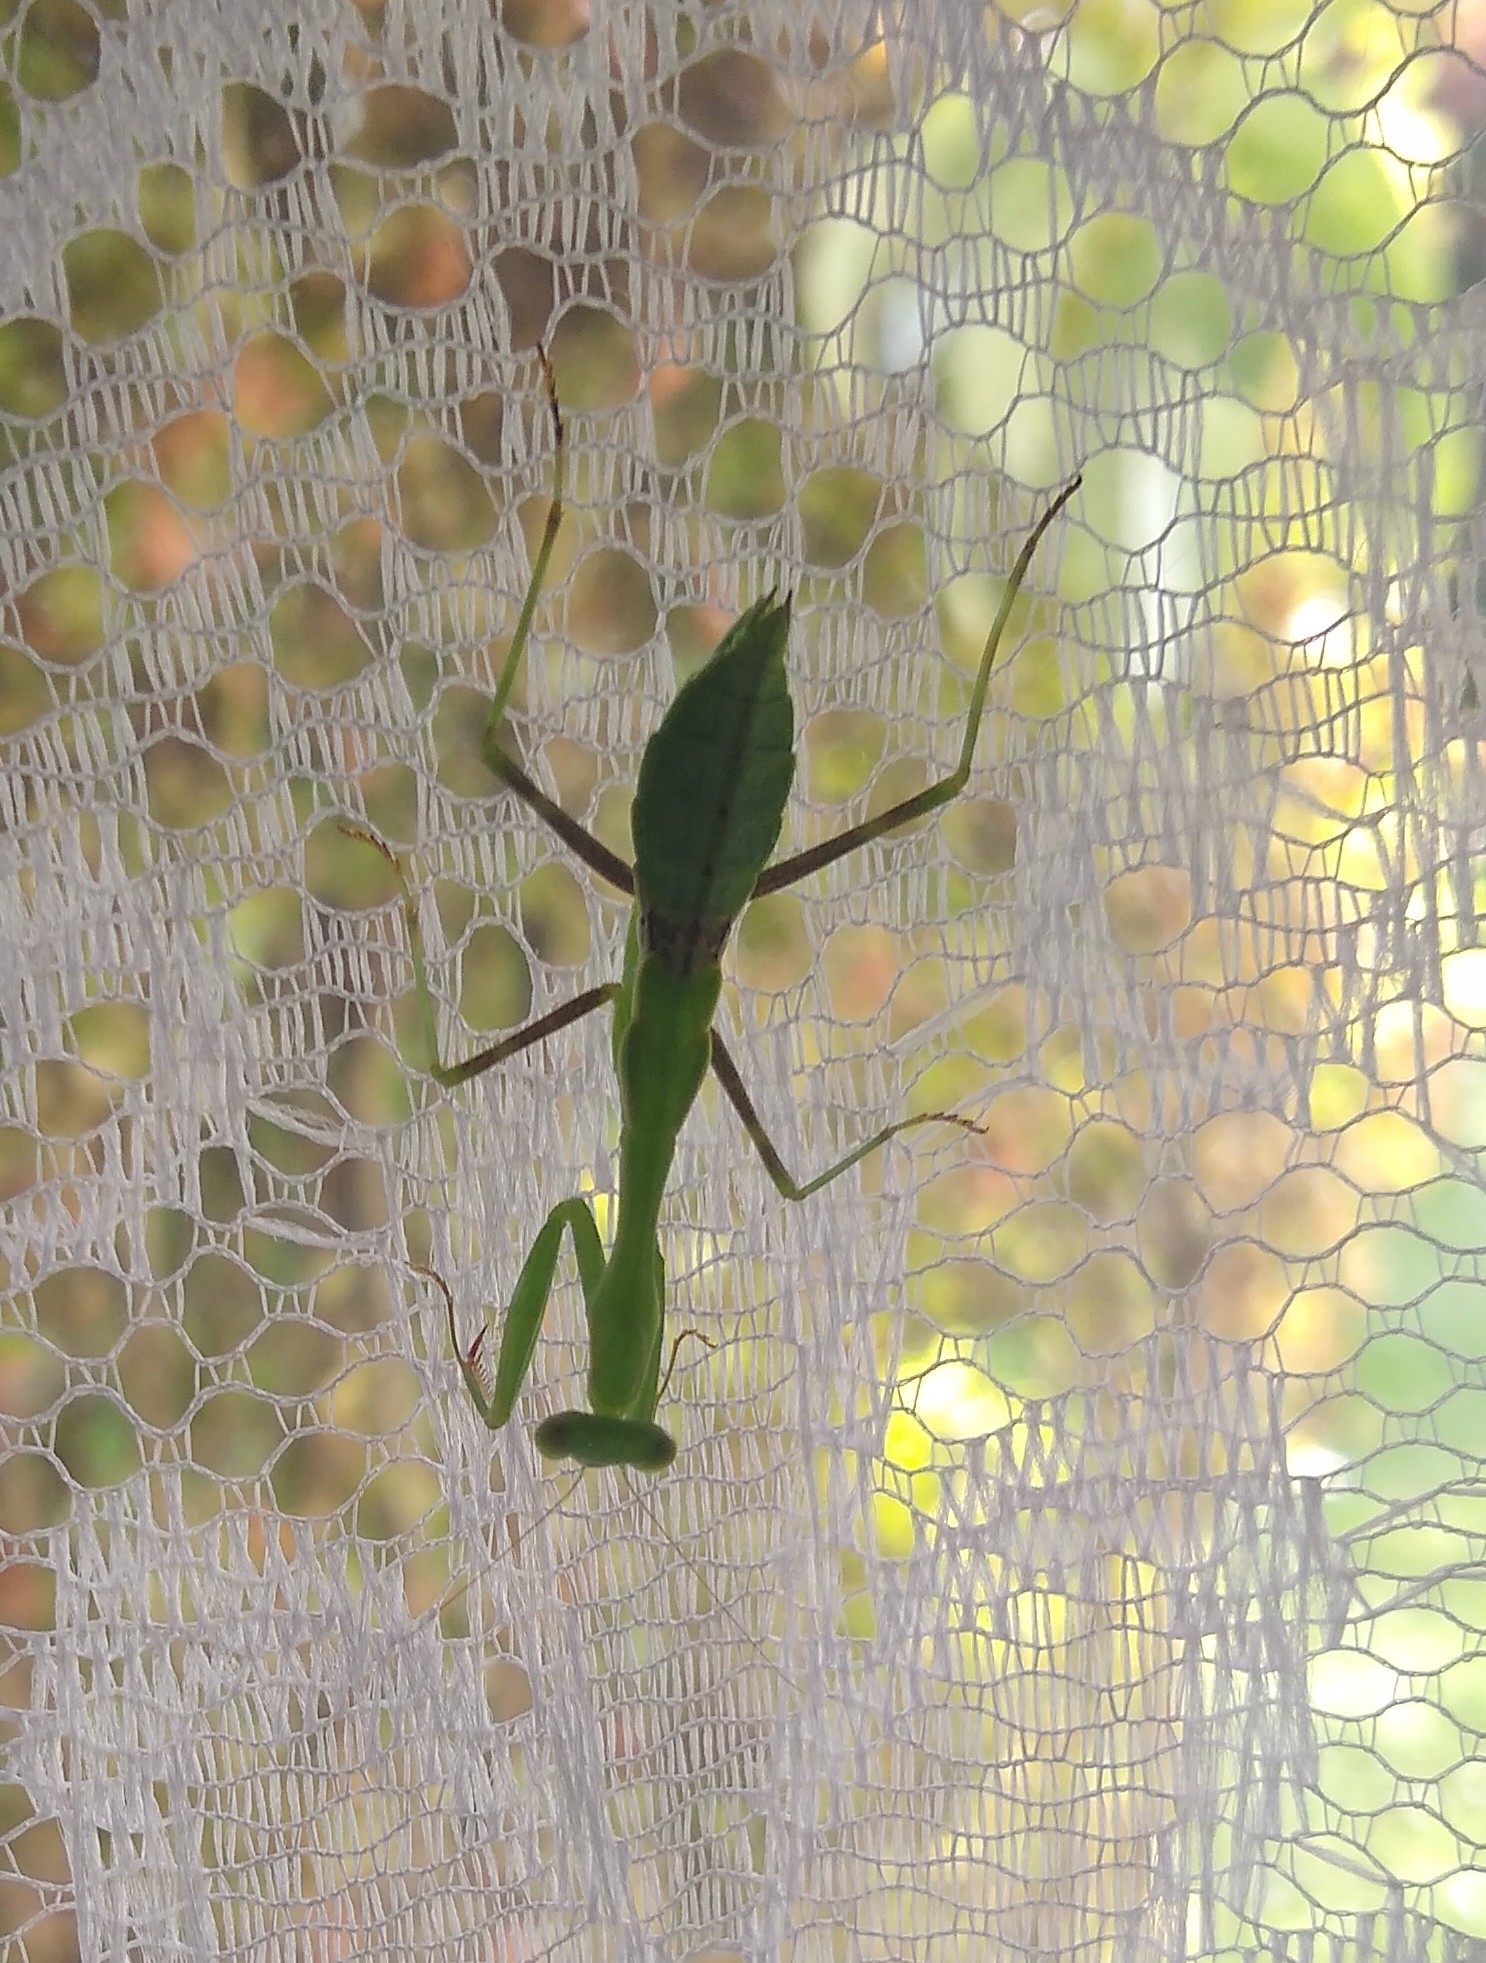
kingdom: Animalia
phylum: Arthropoda
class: Insecta
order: Mantodea
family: Miomantidae
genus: Miomantis
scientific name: Miomantis caffra
